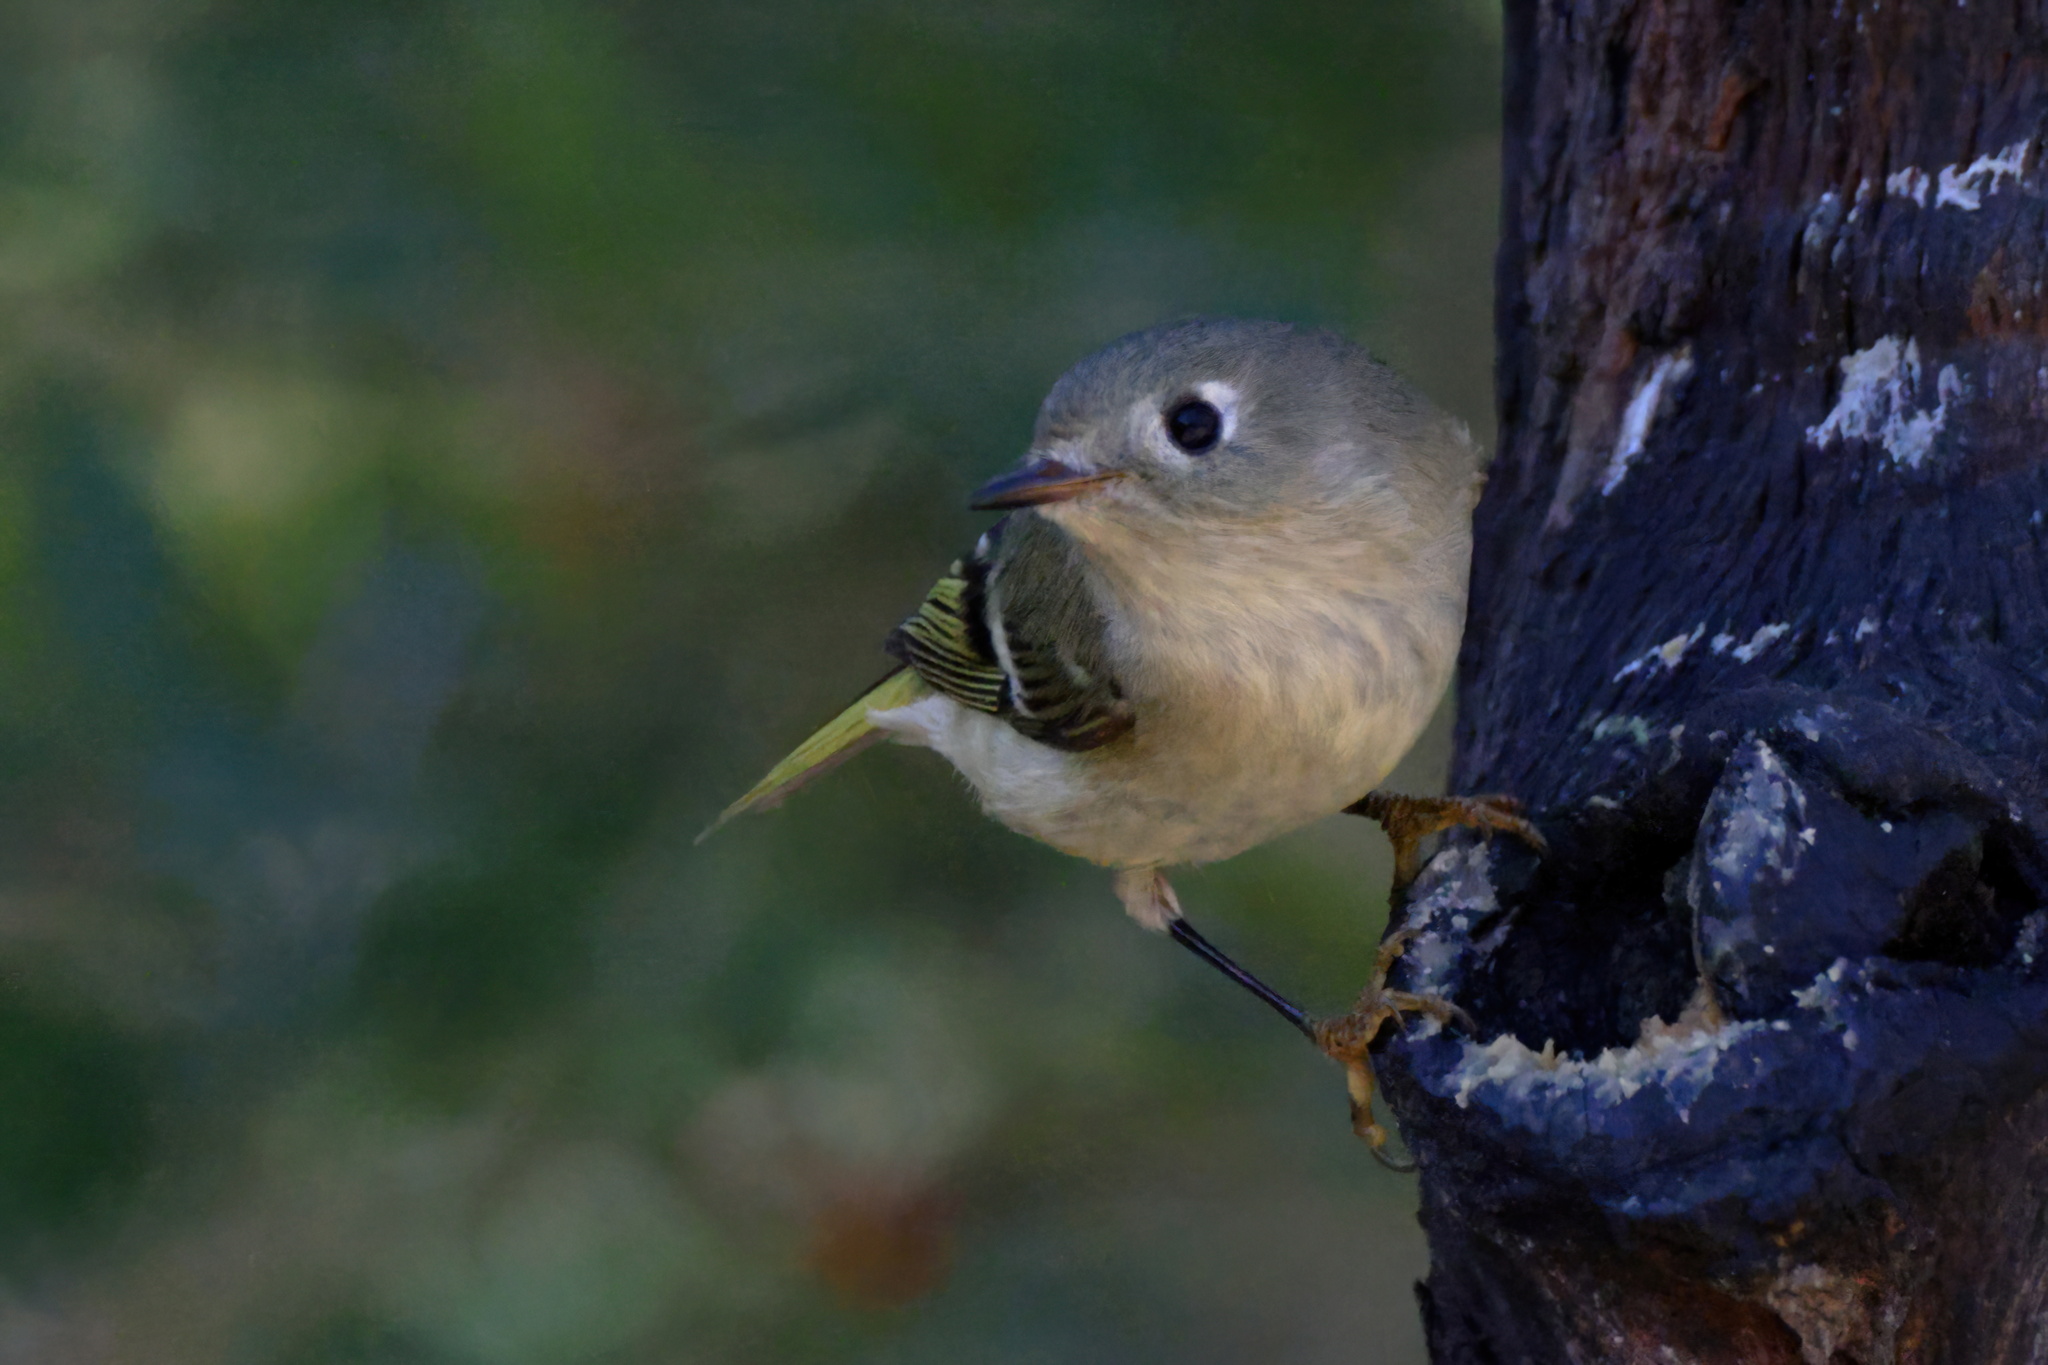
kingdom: Animalia
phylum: Chordata
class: Aves
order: Passeriformes
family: Regulidae
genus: Regulus
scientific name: Regulus calendula
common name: Ruby-crowned kinglet
